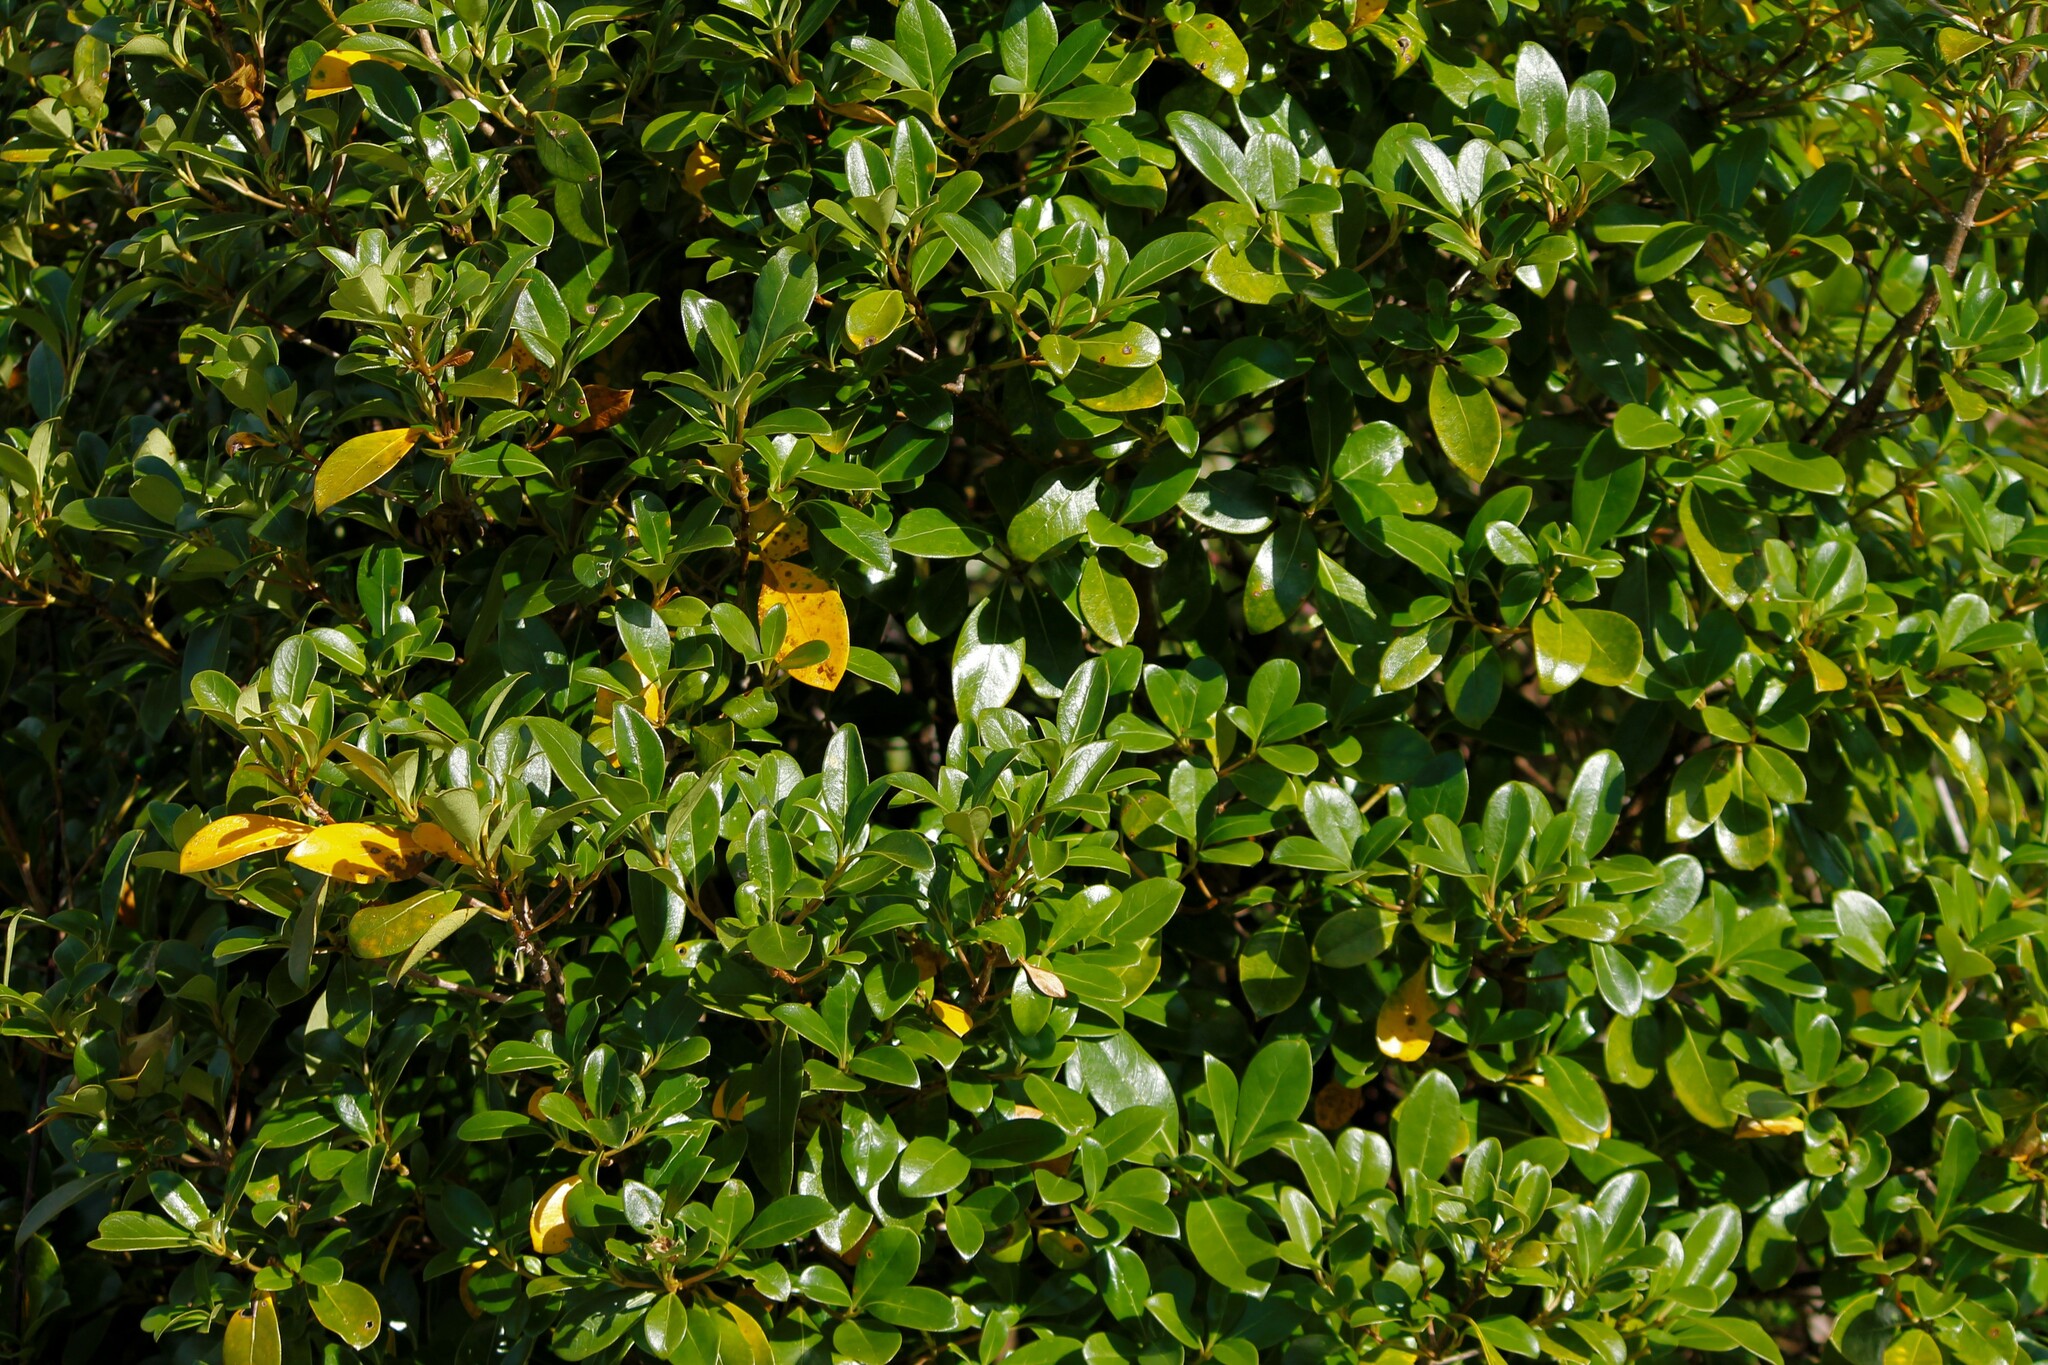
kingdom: Plantae
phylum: Tracheophyta
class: Magnoliopsida
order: Gentianales
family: Rubiaceae
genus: Coprosma
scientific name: Coprosma lucida
